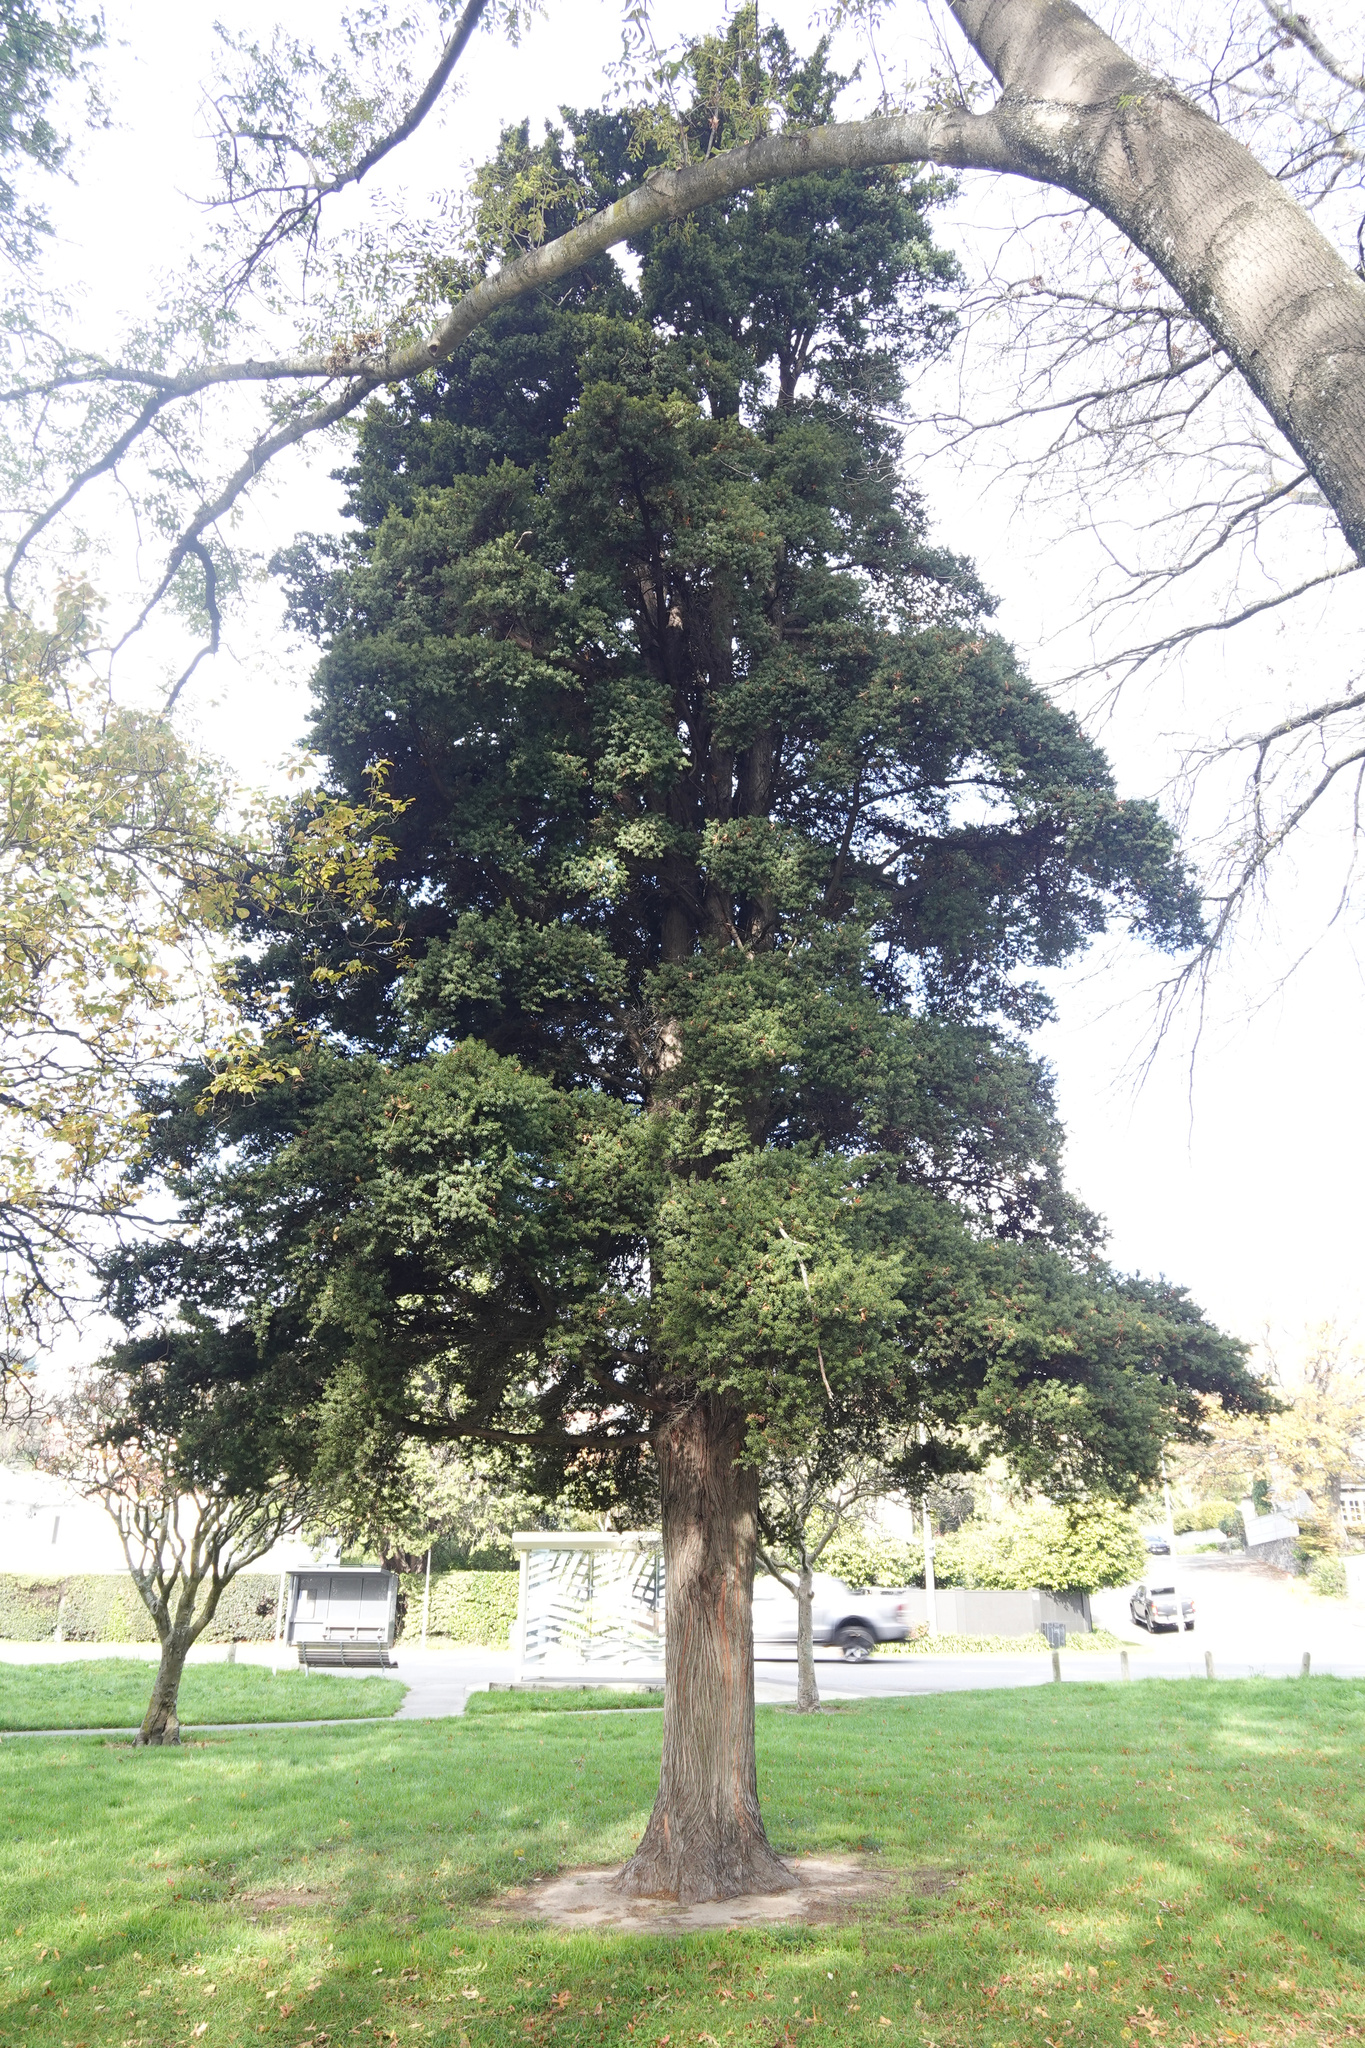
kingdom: Plantae
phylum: Tracheophyta
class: Pinopsida
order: Pinales
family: Podocarpaceae
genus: Podocarpus
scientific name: Podocarpus totara
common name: Totara
